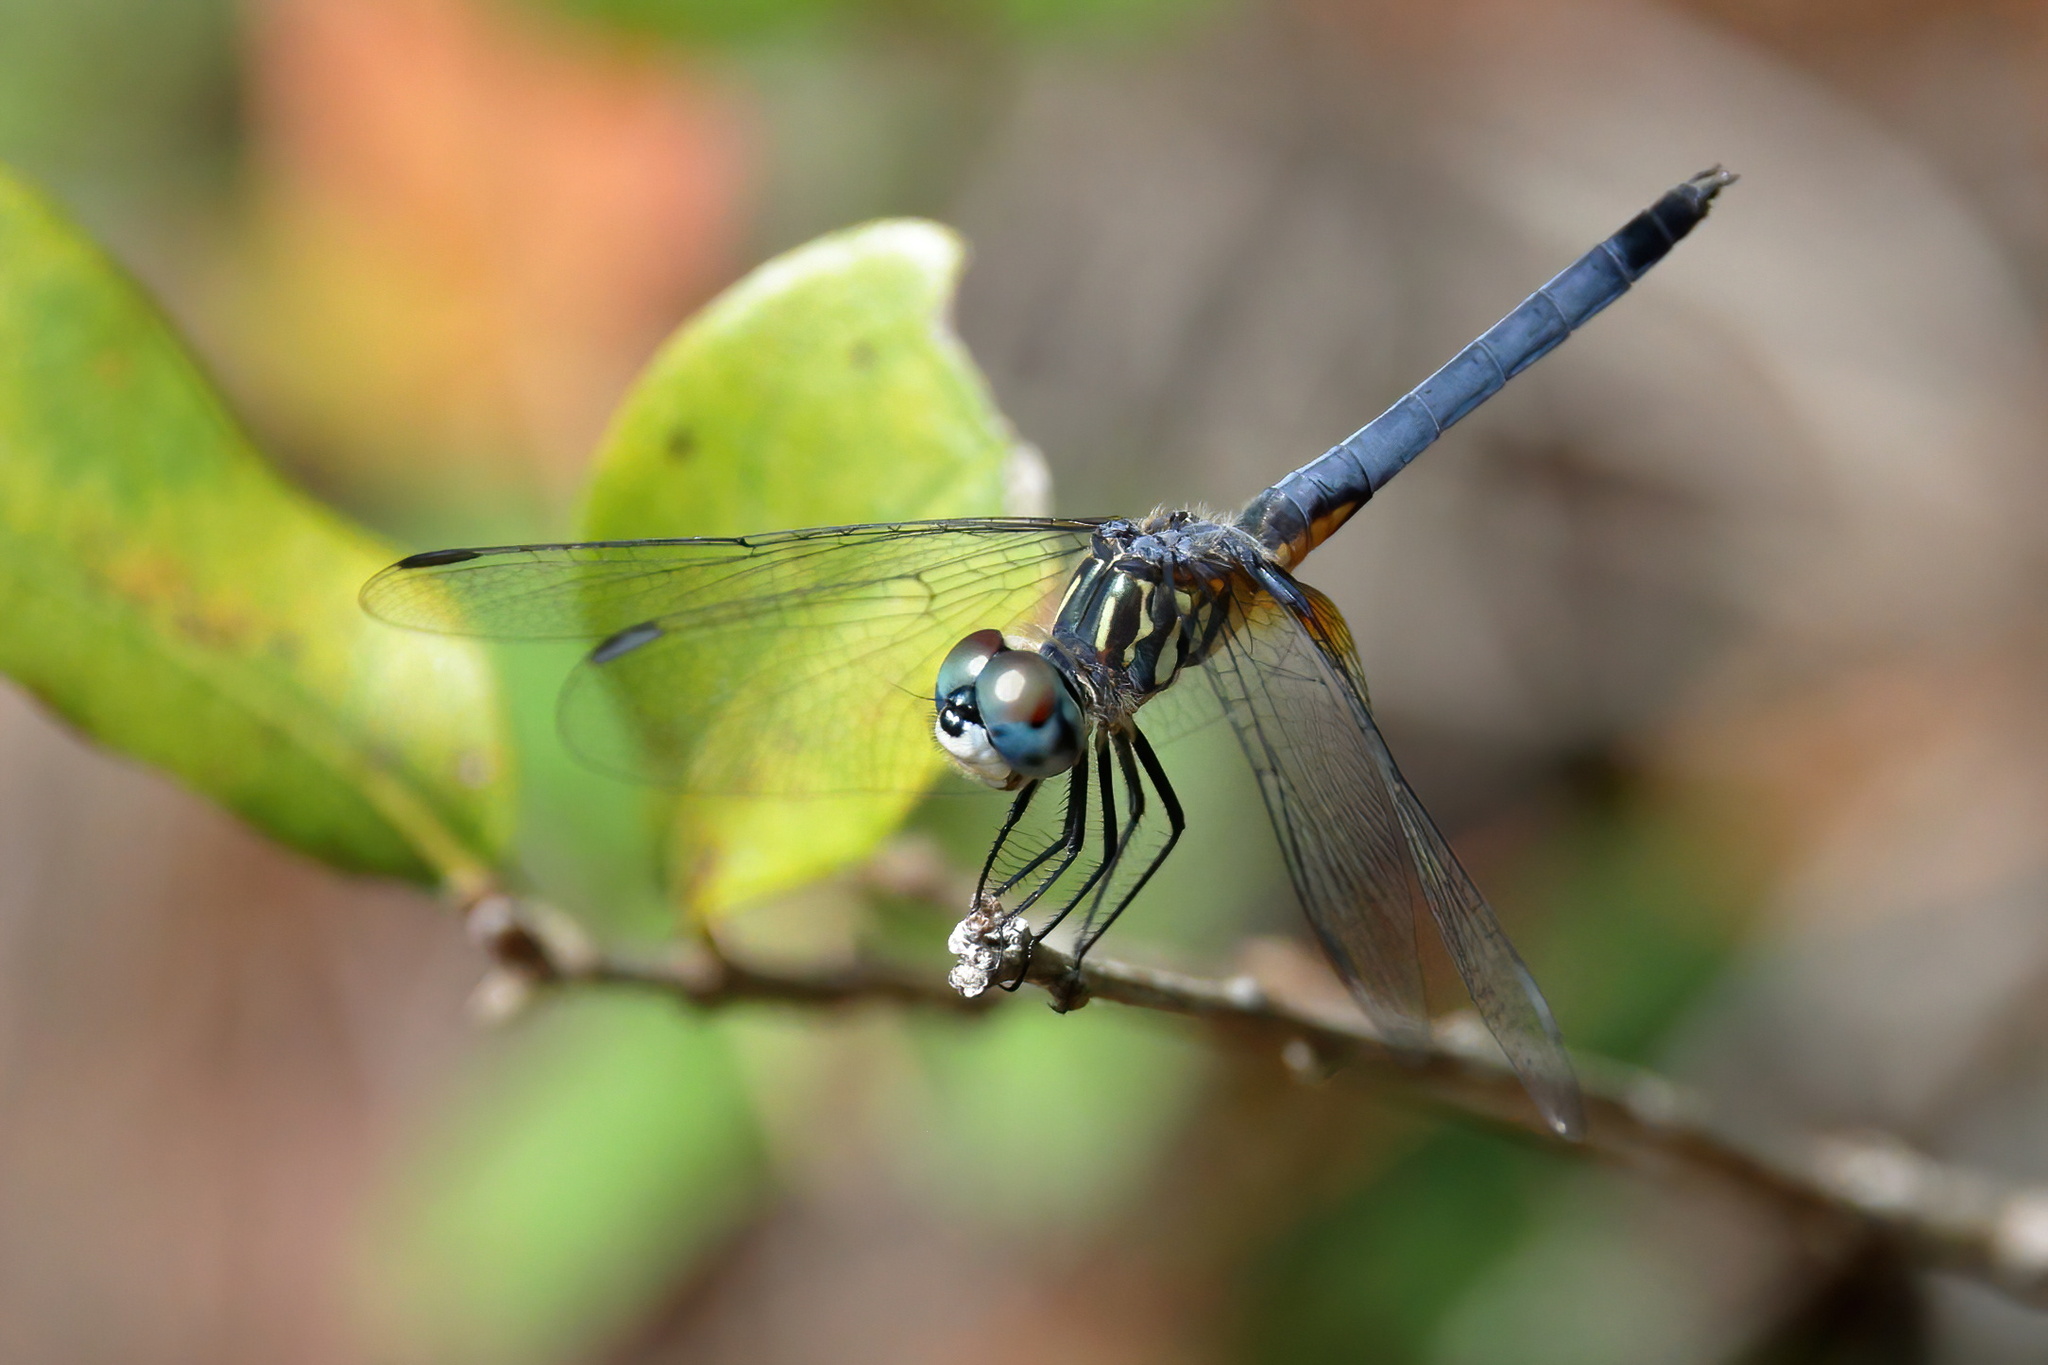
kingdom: Animalia
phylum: Arthropoda
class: Insecta
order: Odonata
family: Libellulidae
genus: Pachydiplax
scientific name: Pachydiplax longipennis
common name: Blue dasher
